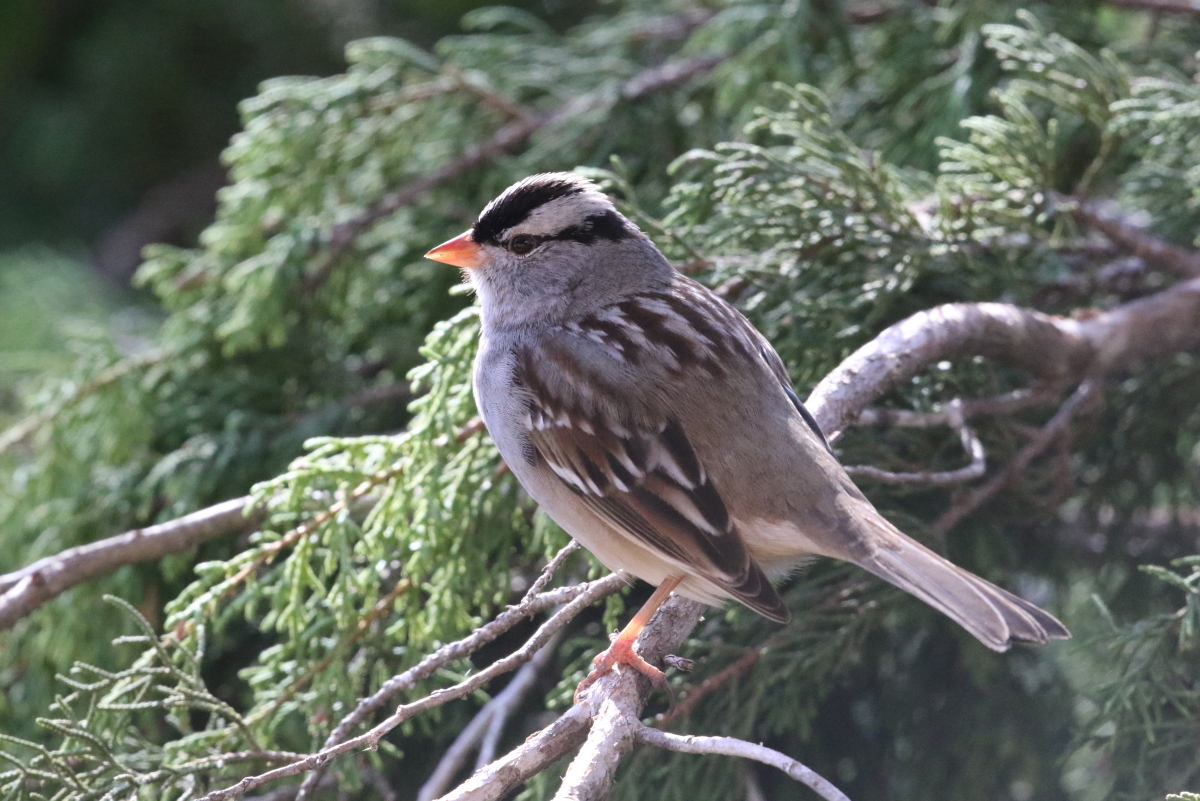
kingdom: Animalia
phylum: Chordata
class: Aves
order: Passeriformes
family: Passerellidae
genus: Zonotrichia
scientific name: Zonotrichia leucophrys
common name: White-crowned sparrow
